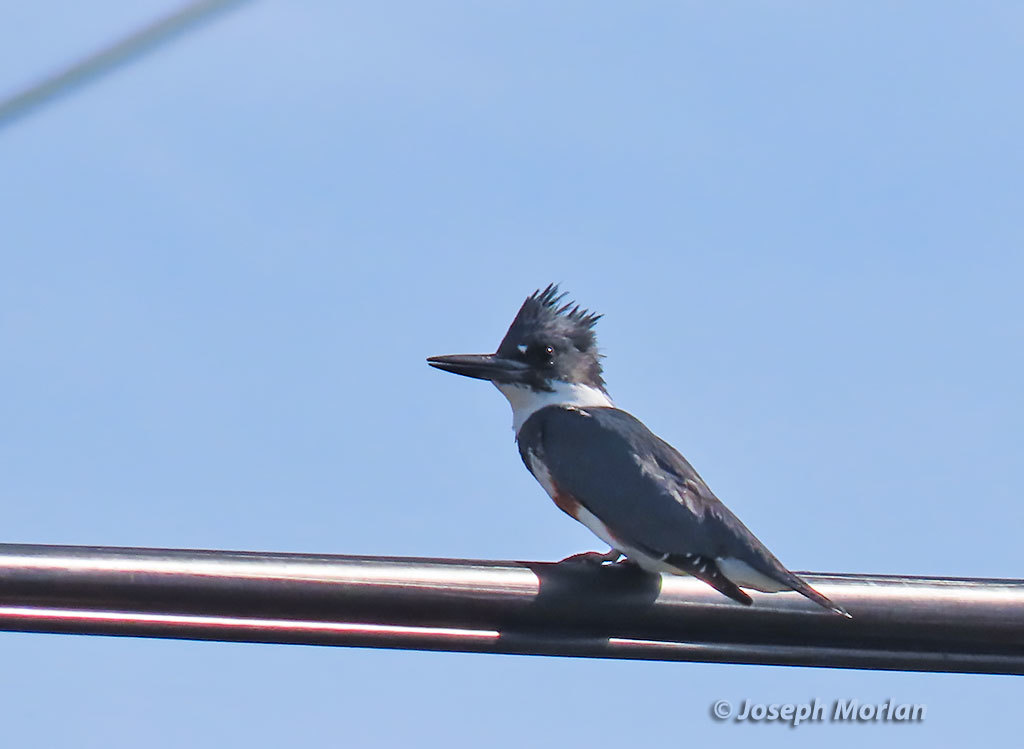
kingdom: Animalia
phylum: Chordata
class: Aves
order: Coraciiformes
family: Alcedinidae
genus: Megaceryle
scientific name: Megaceryle alcyon
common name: Belted kingfisher
